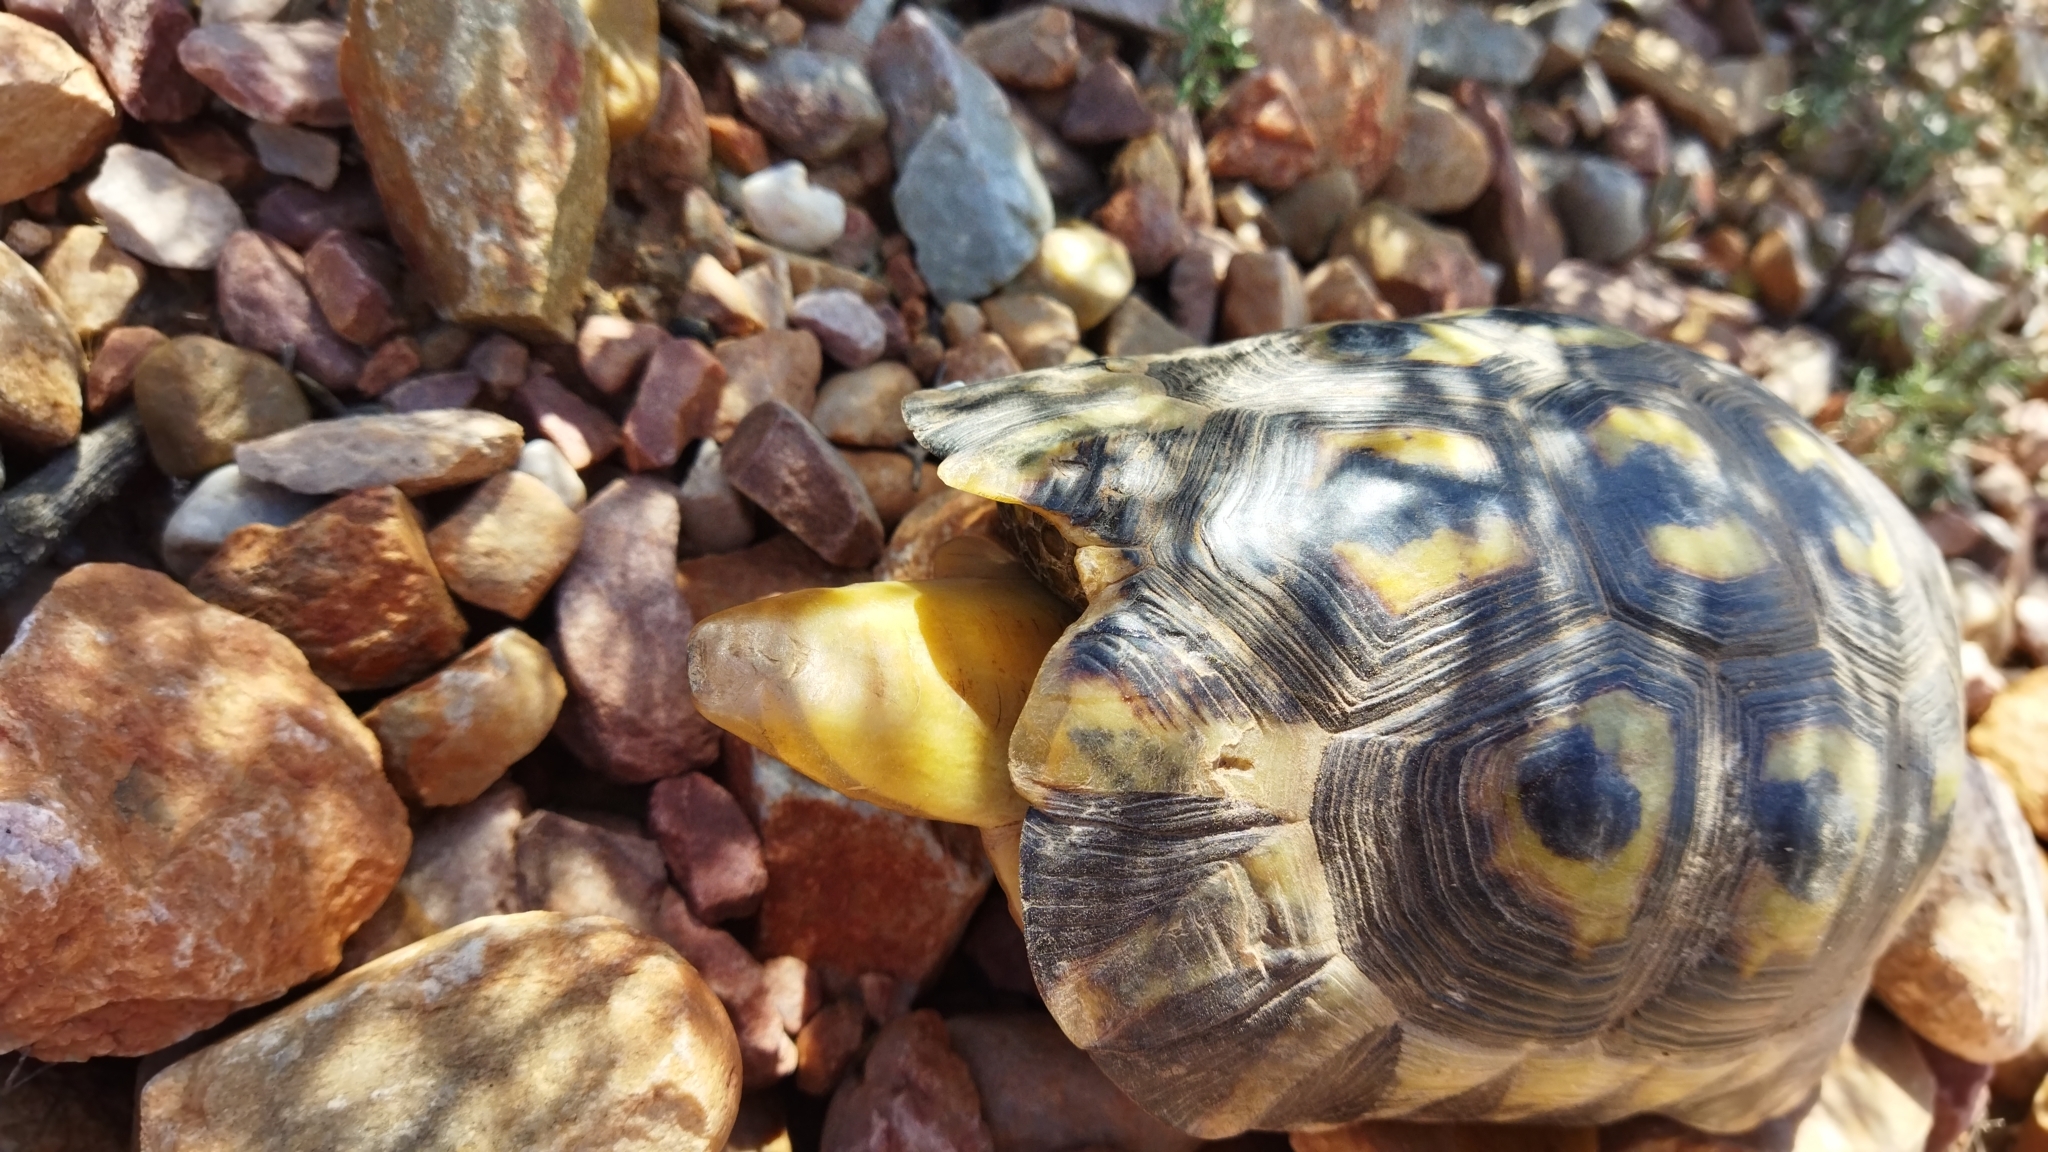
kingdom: Animalia
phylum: Chordata
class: Testudines
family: Testudinidae
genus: Chersina
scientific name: Chersina angulata
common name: South african bowsprit tortoise
